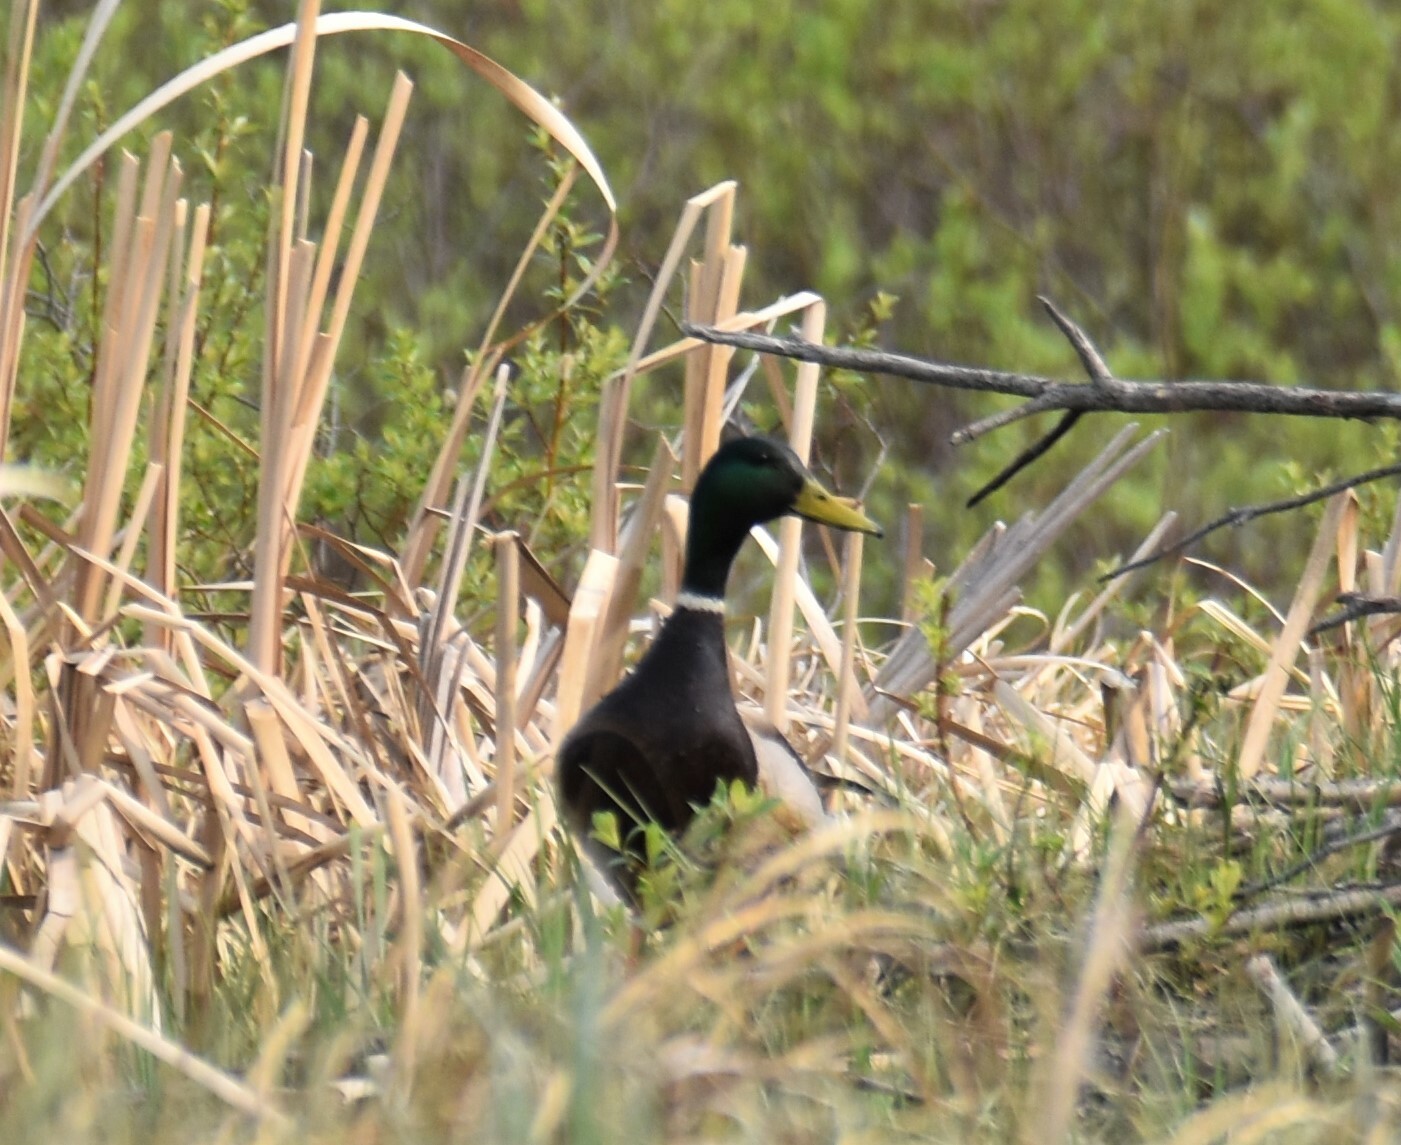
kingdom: Animalia
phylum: Chordata
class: Aves
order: Anseriformes
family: Anatidae
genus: Anas
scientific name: Anas platyrhynchos
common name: Mallard
